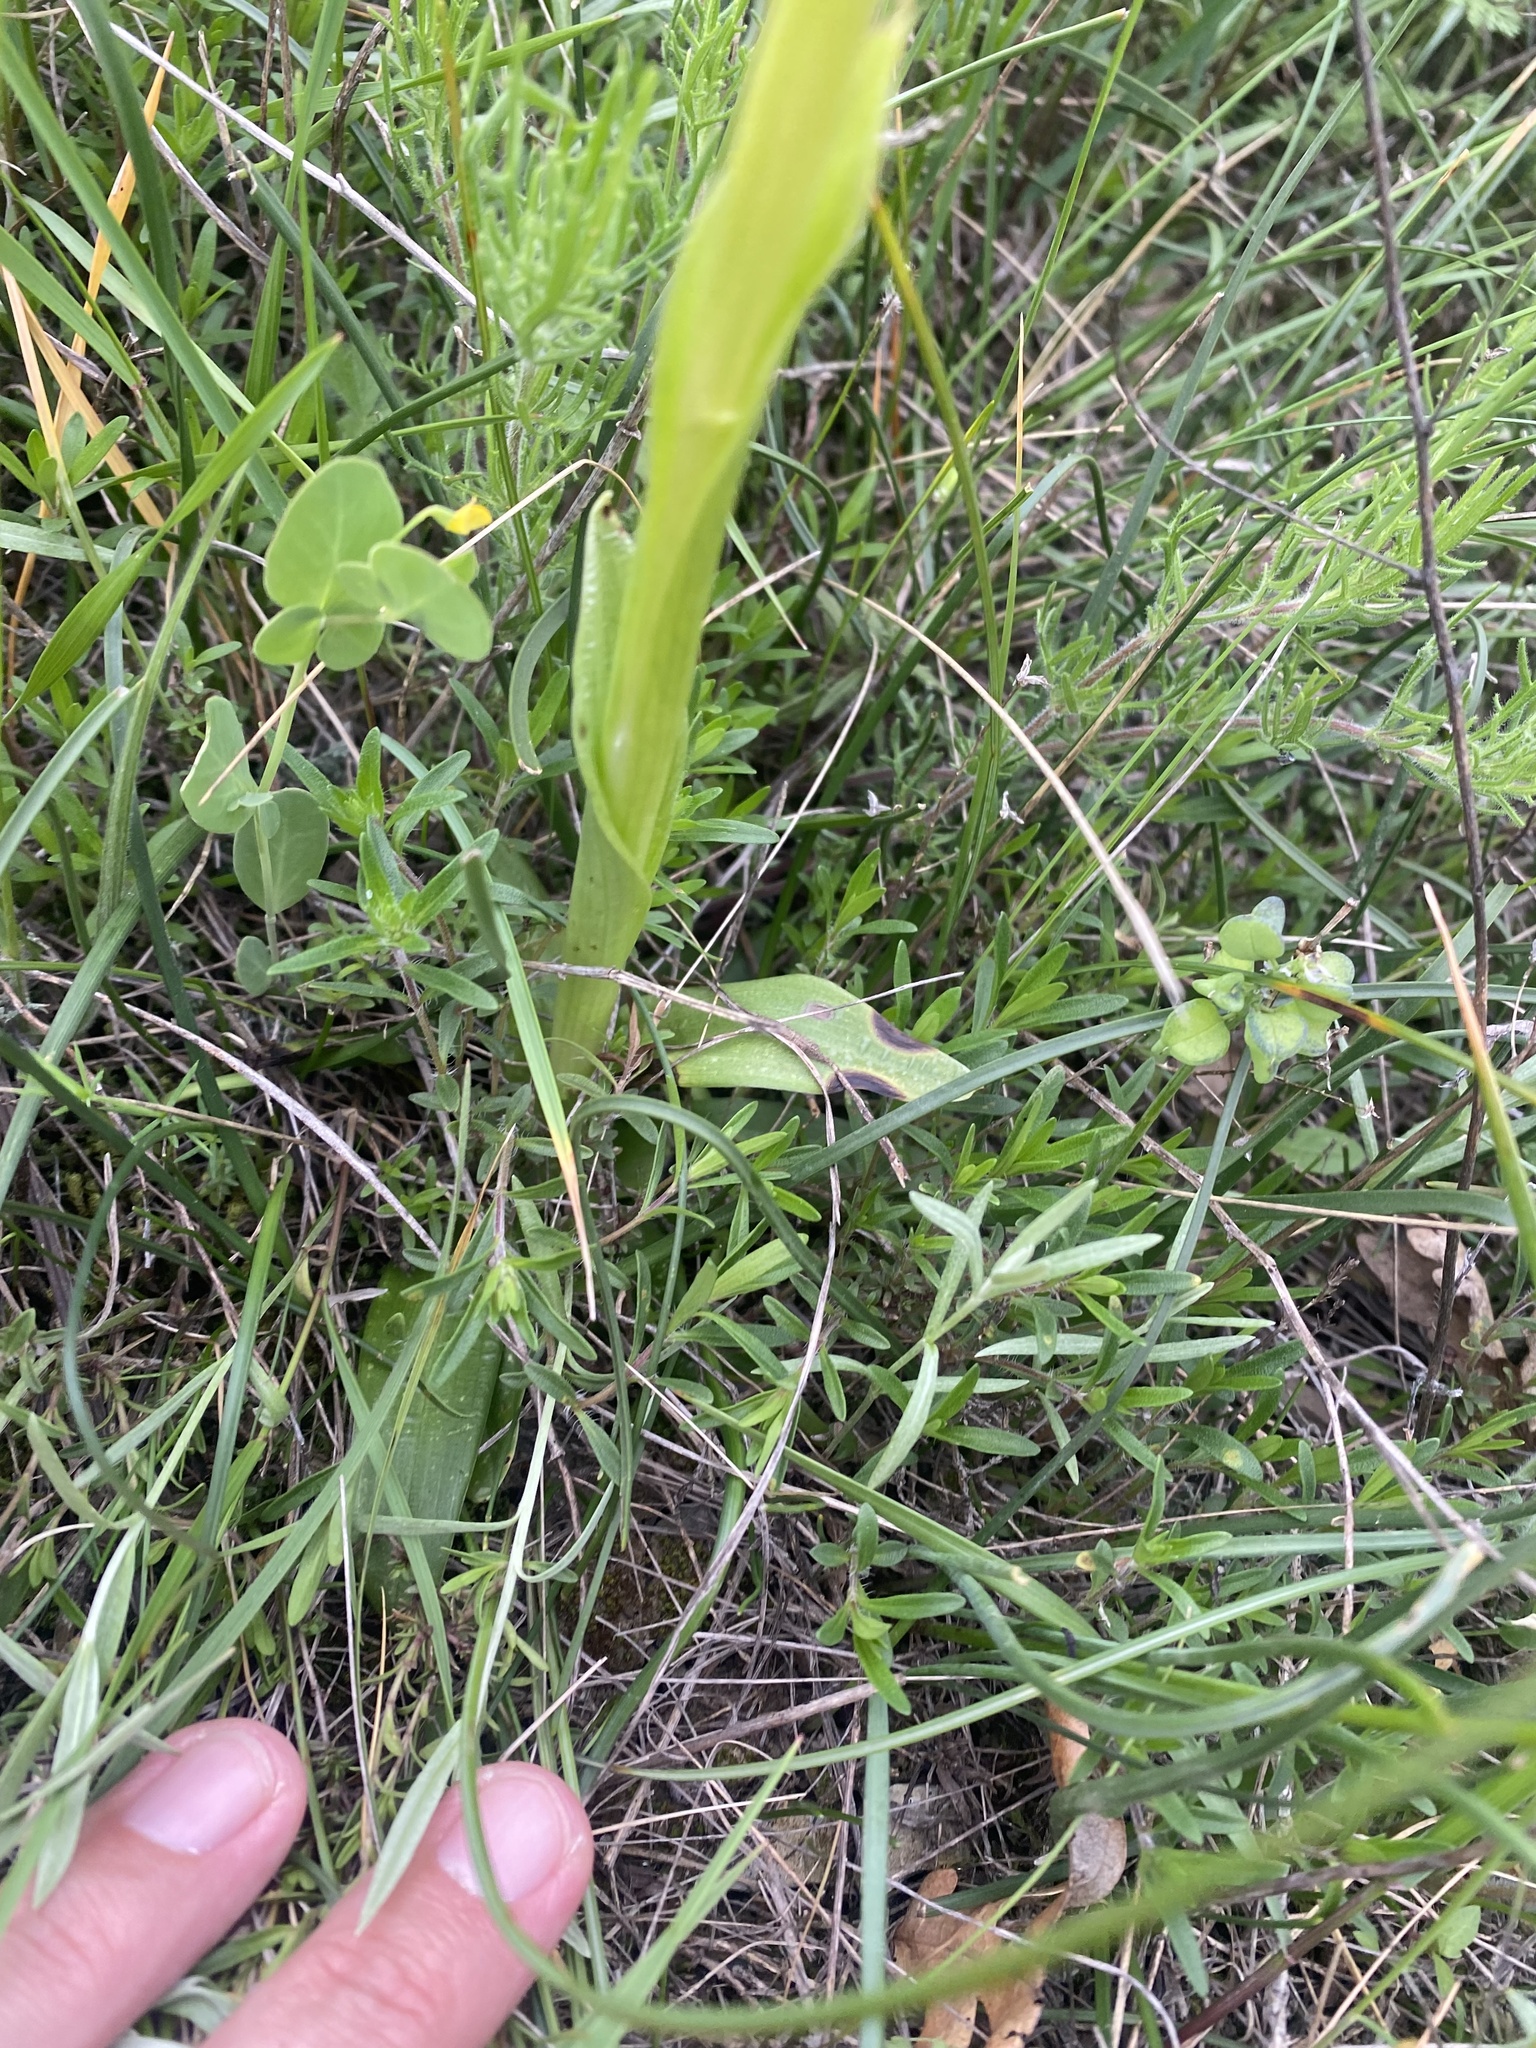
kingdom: Plantae
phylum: Tracheophyta
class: Liliopsida
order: Asparagales
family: Orchidaceae
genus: Anacamptis
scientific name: Anacamptis morio
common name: Green-winged orchid
